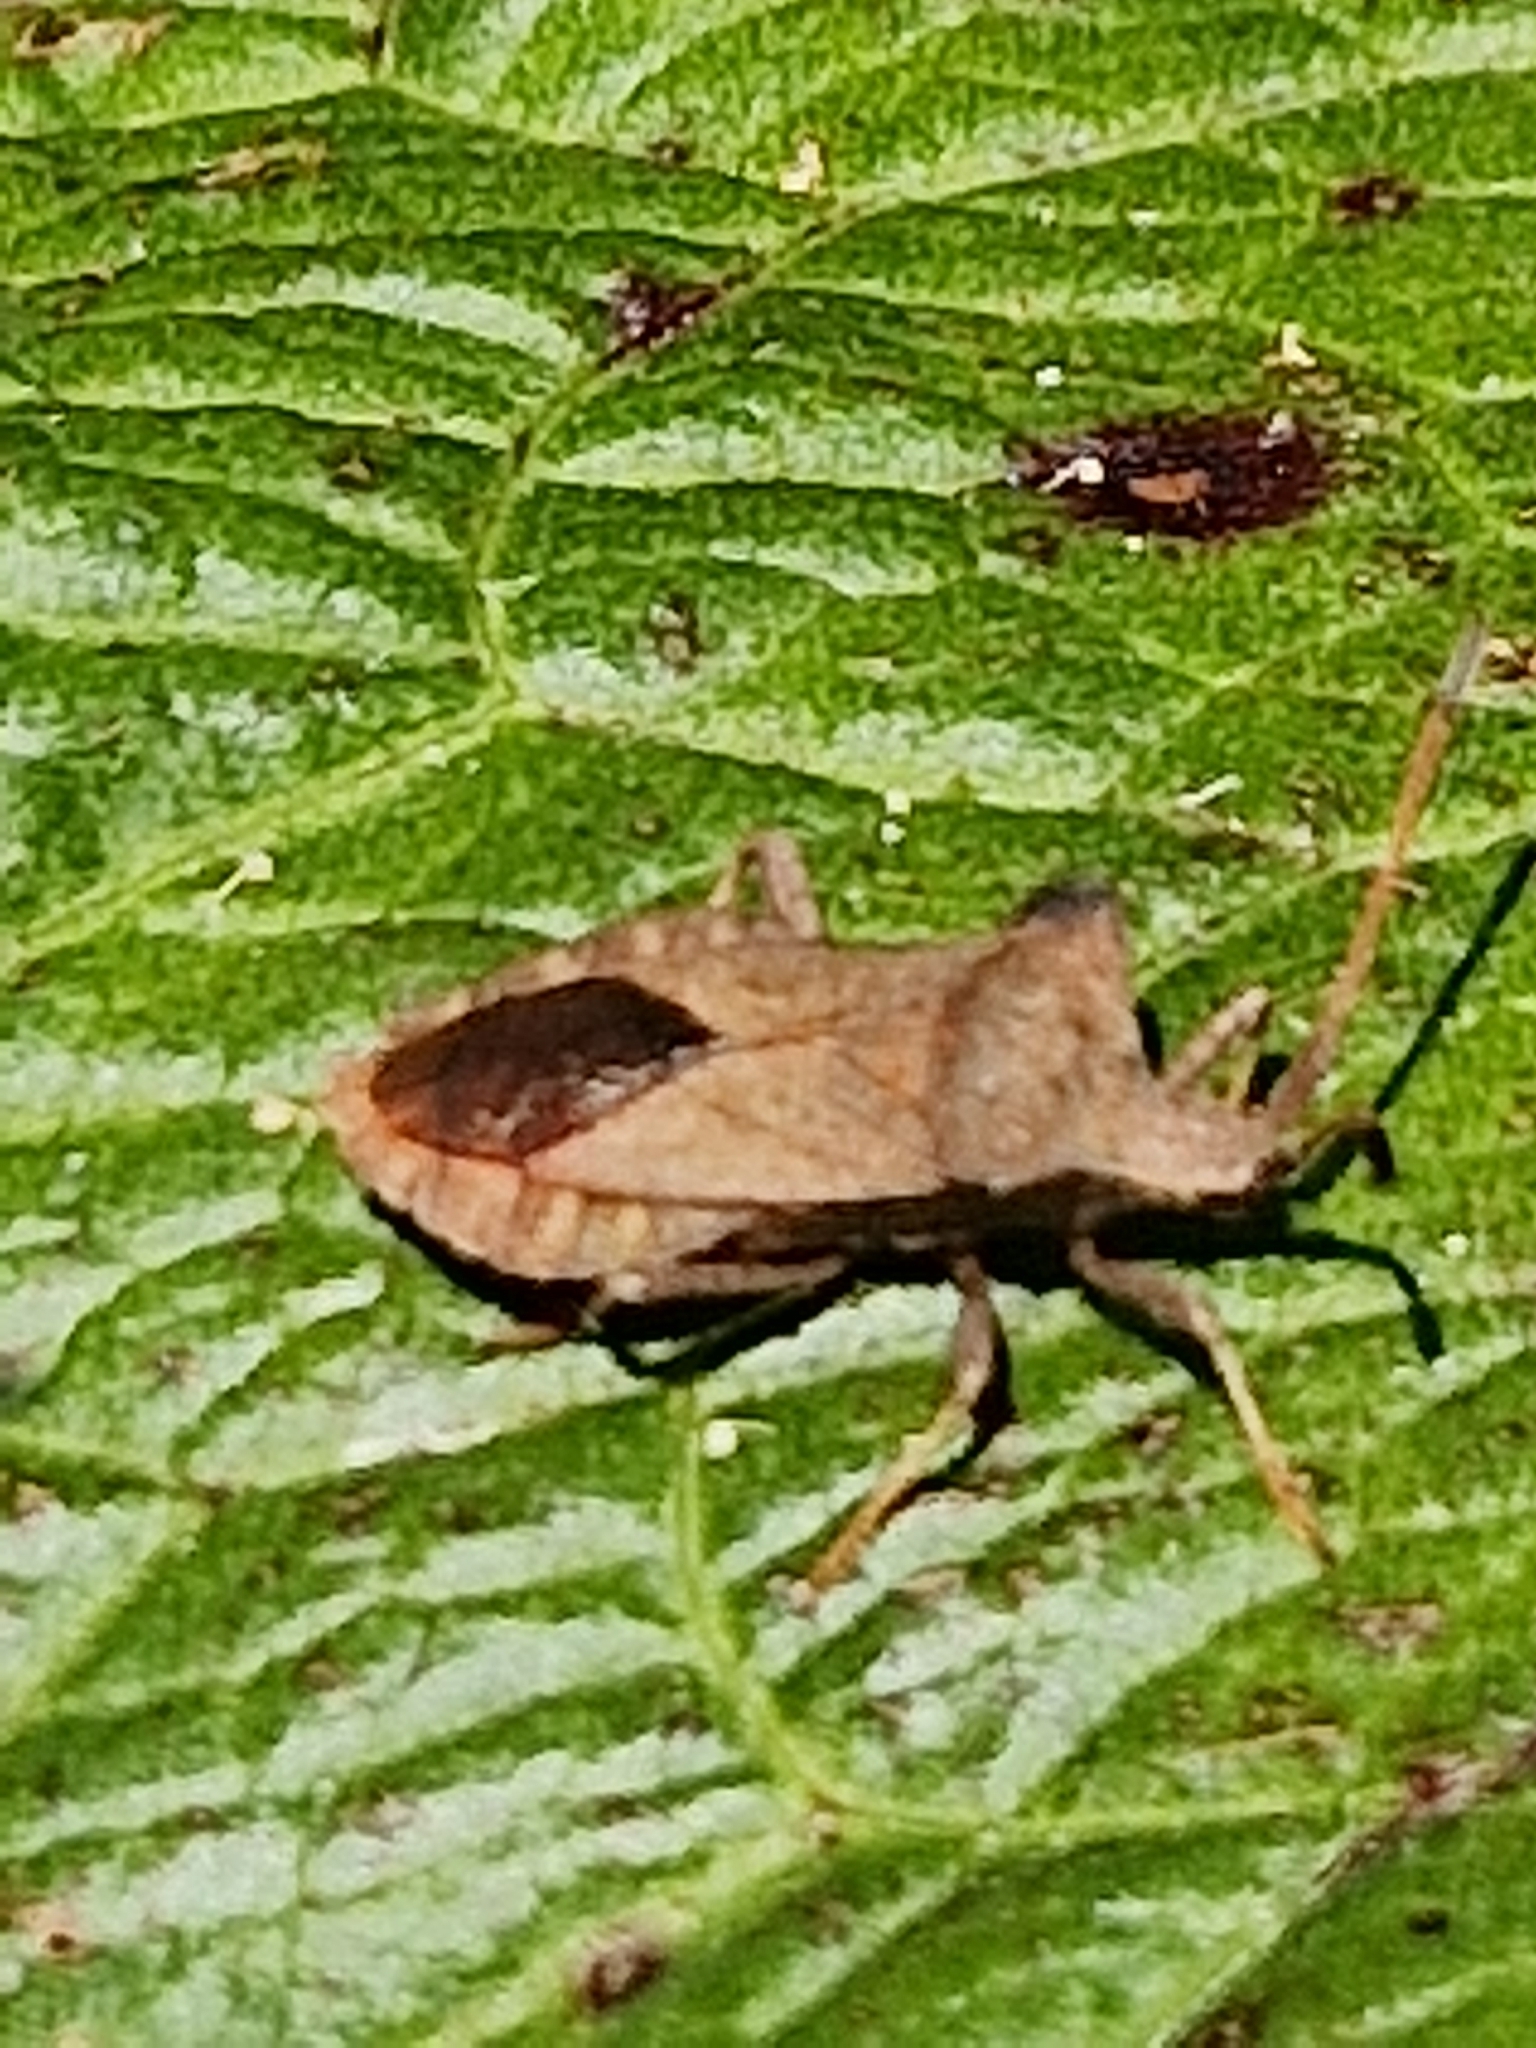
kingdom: Animalia
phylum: Arthropoda
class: Insecta
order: Hemiptera
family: Coreidae
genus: Coreus
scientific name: Coreus marginatus
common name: Dock bug
